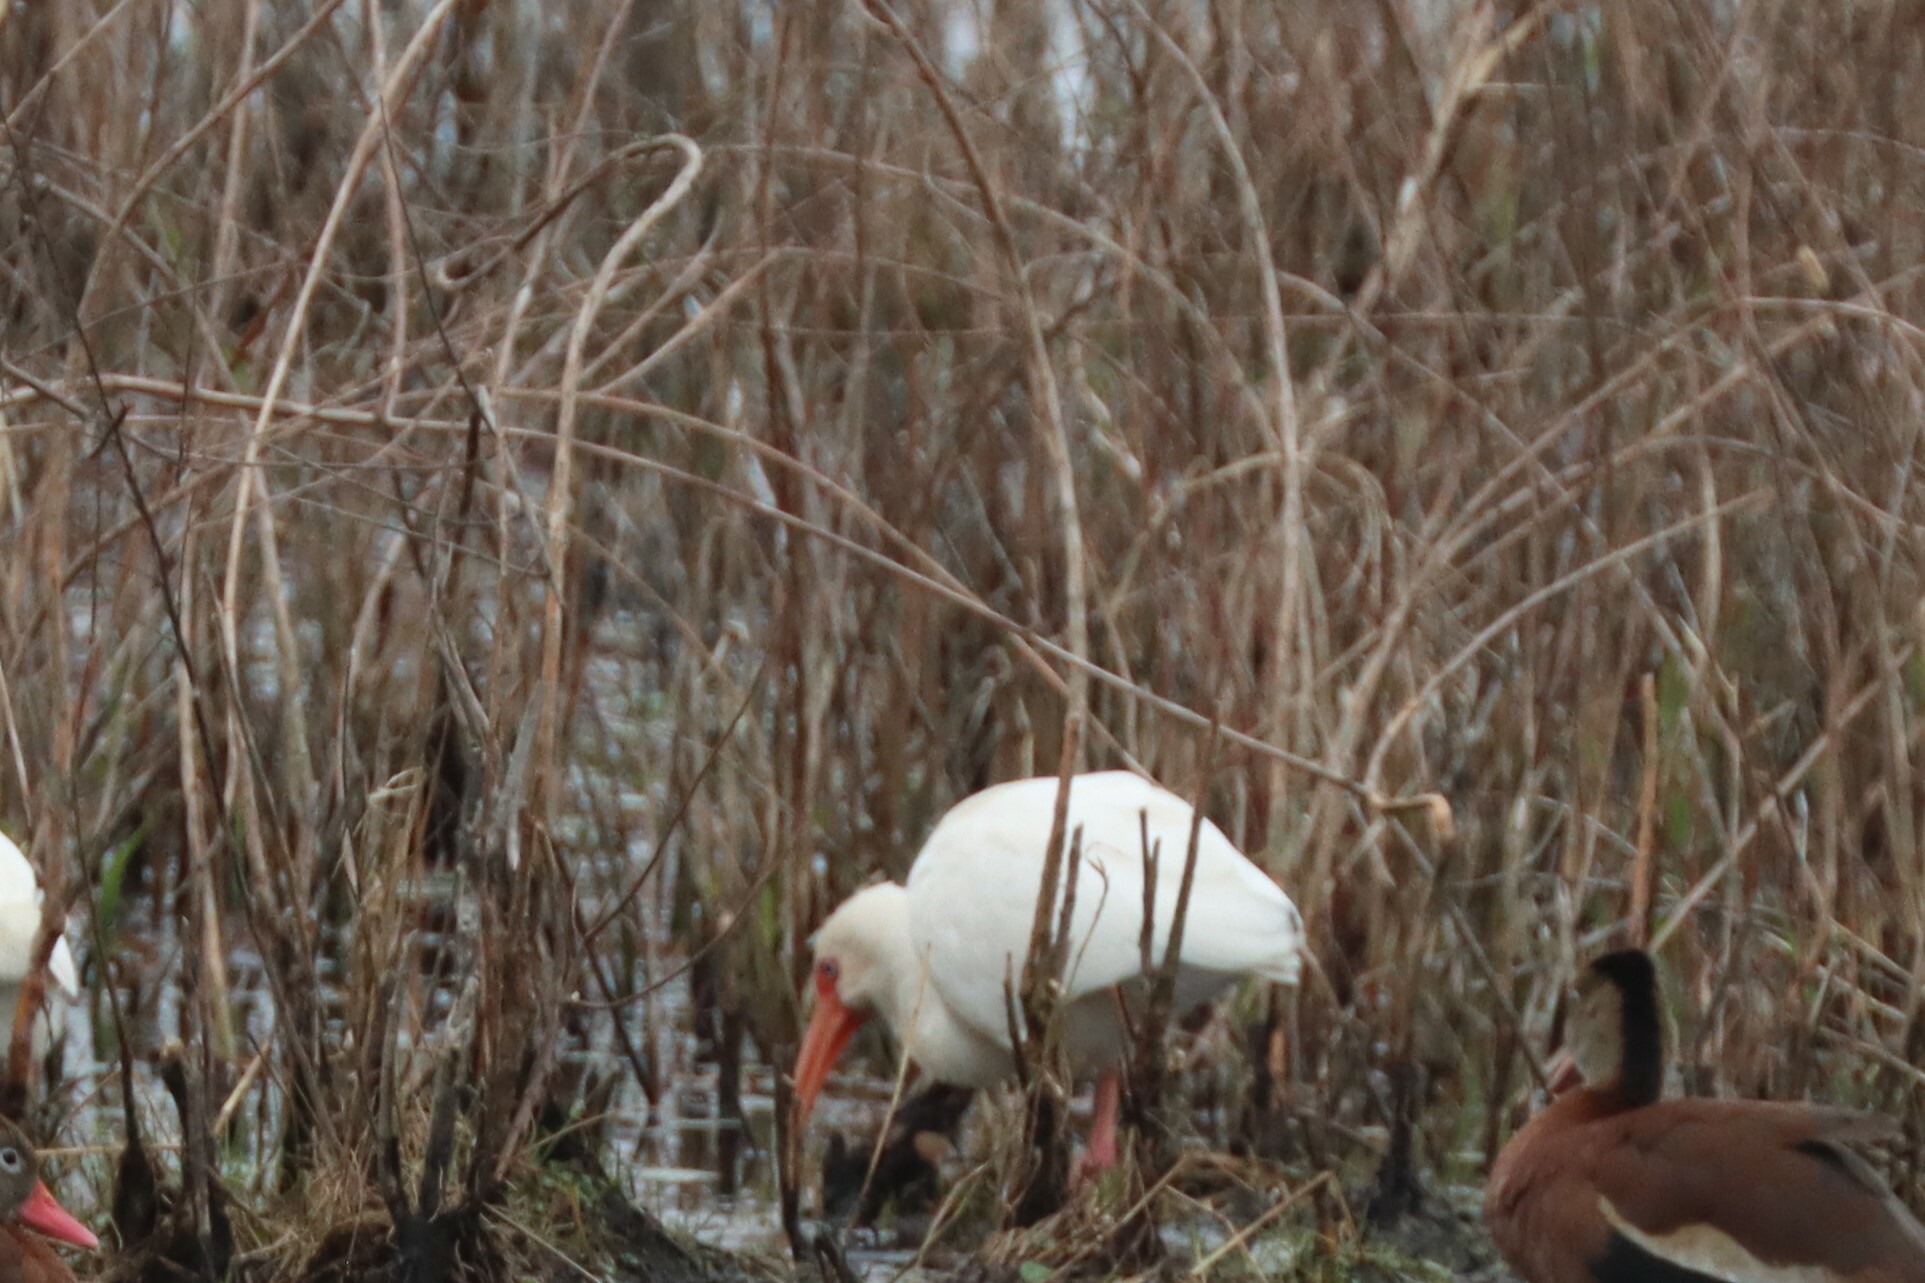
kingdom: Animalia
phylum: Chordata
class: Aves
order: Pelecaniformes
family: Threskiornithidae
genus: Eudocimus
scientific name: Eudocimus albus
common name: White ibis
